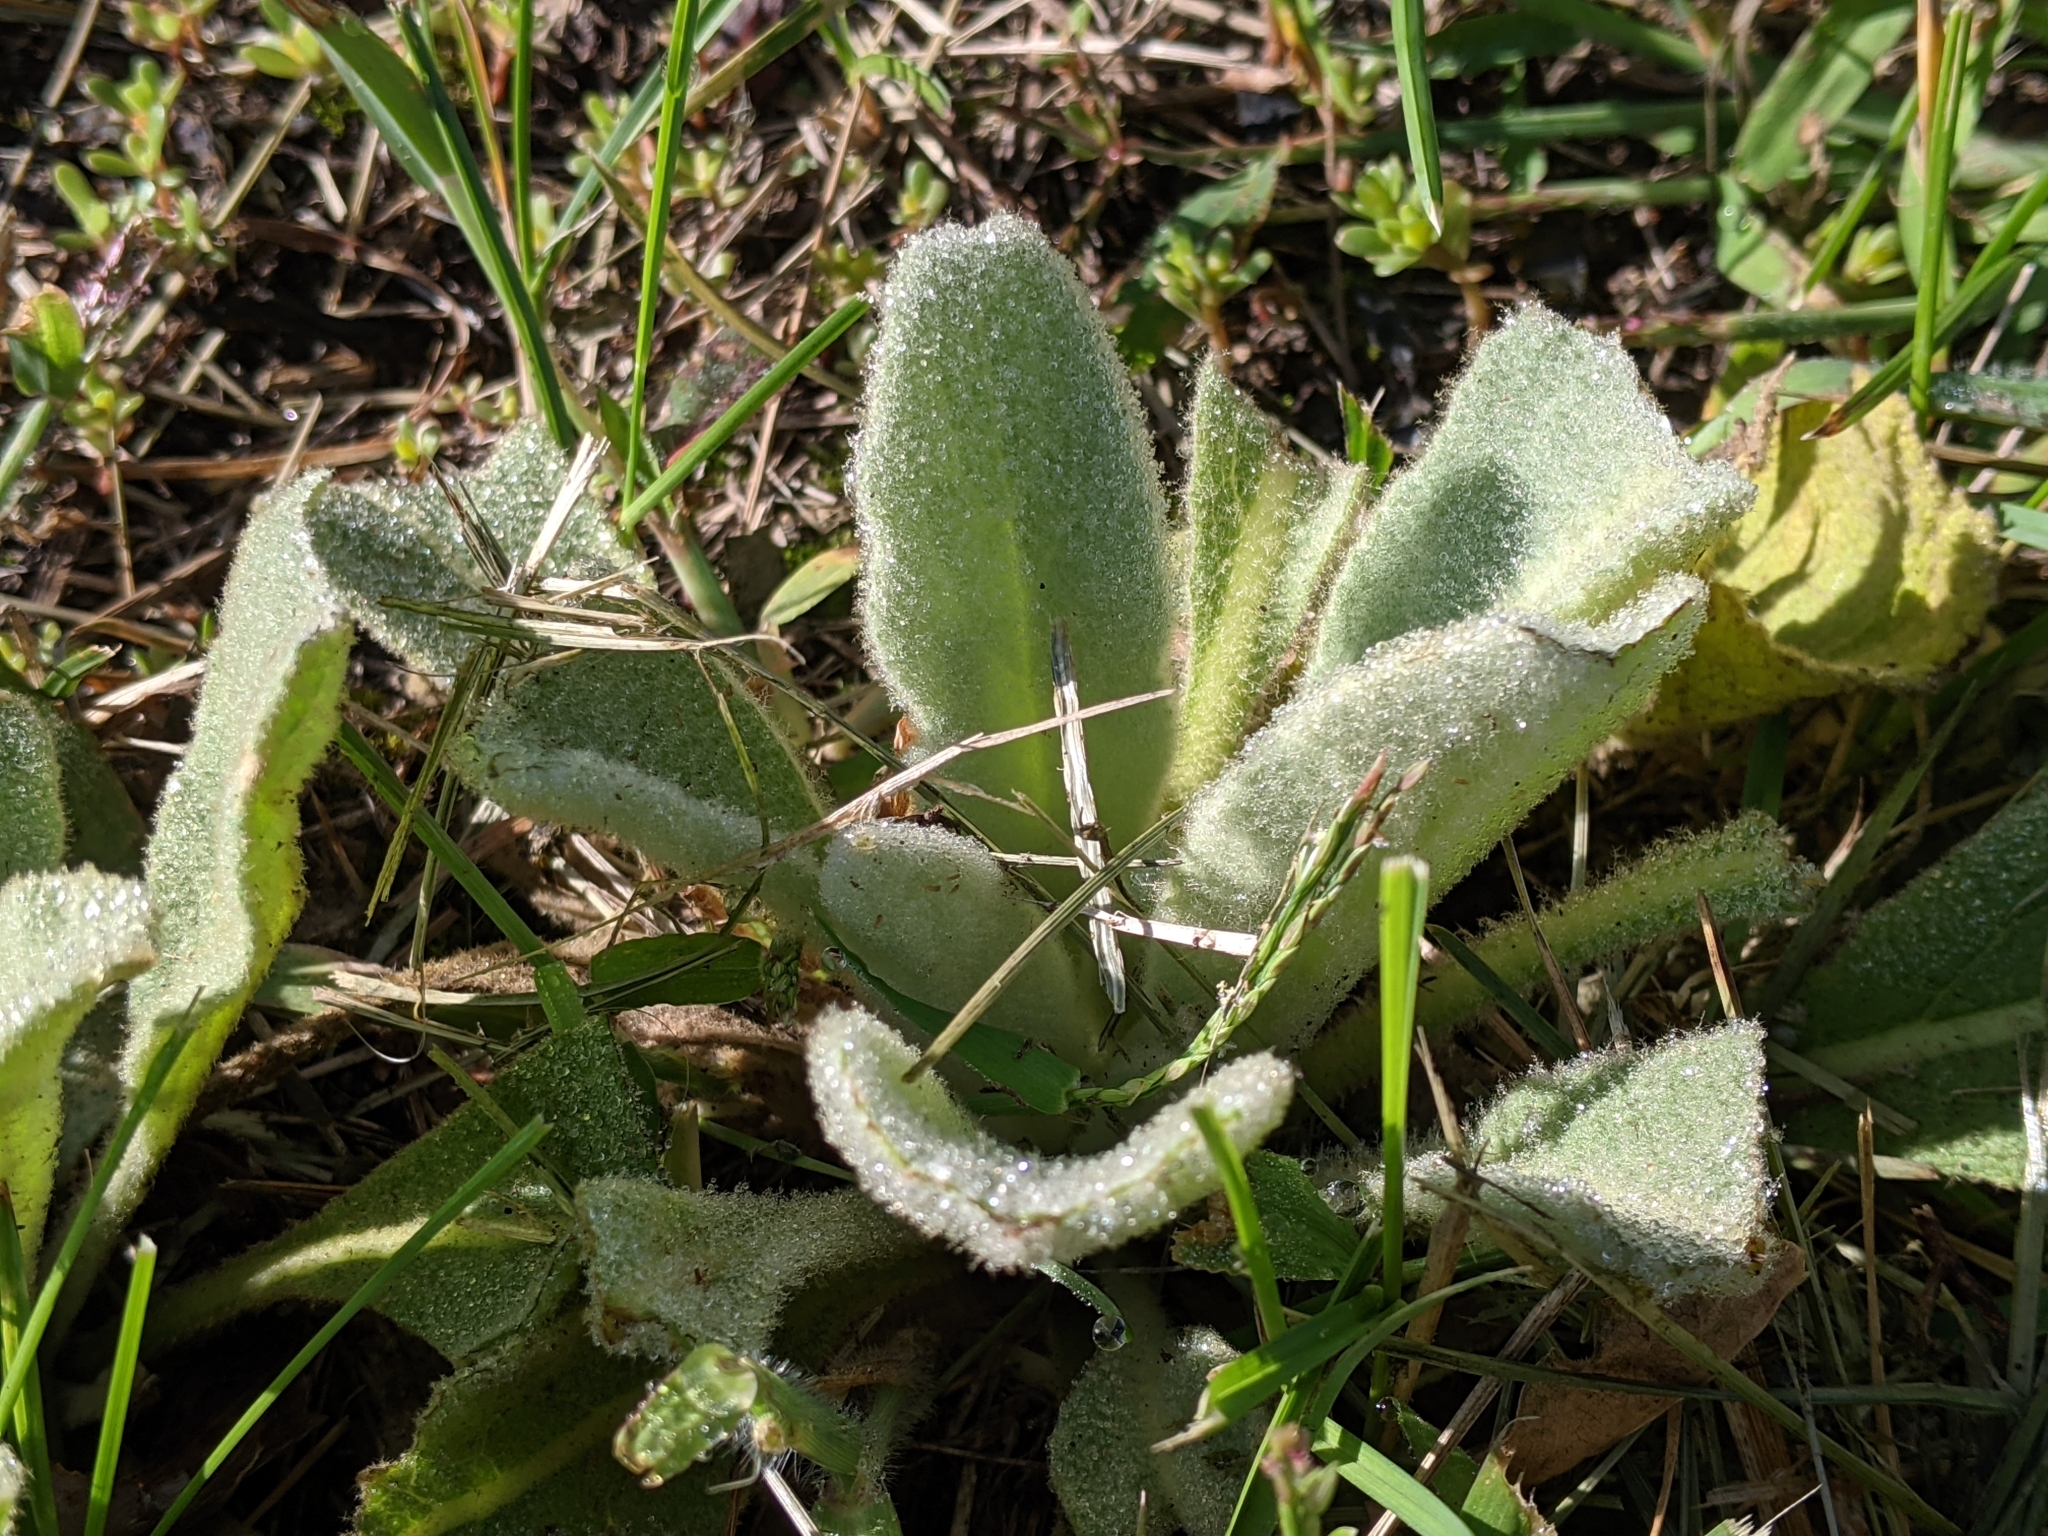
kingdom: Plantae
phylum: Tracheophyta
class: Magnoliopsida
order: Lamiales
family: Scrophulariaceae
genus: Verbascum
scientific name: Verbascum thapsus
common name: Common mullein
